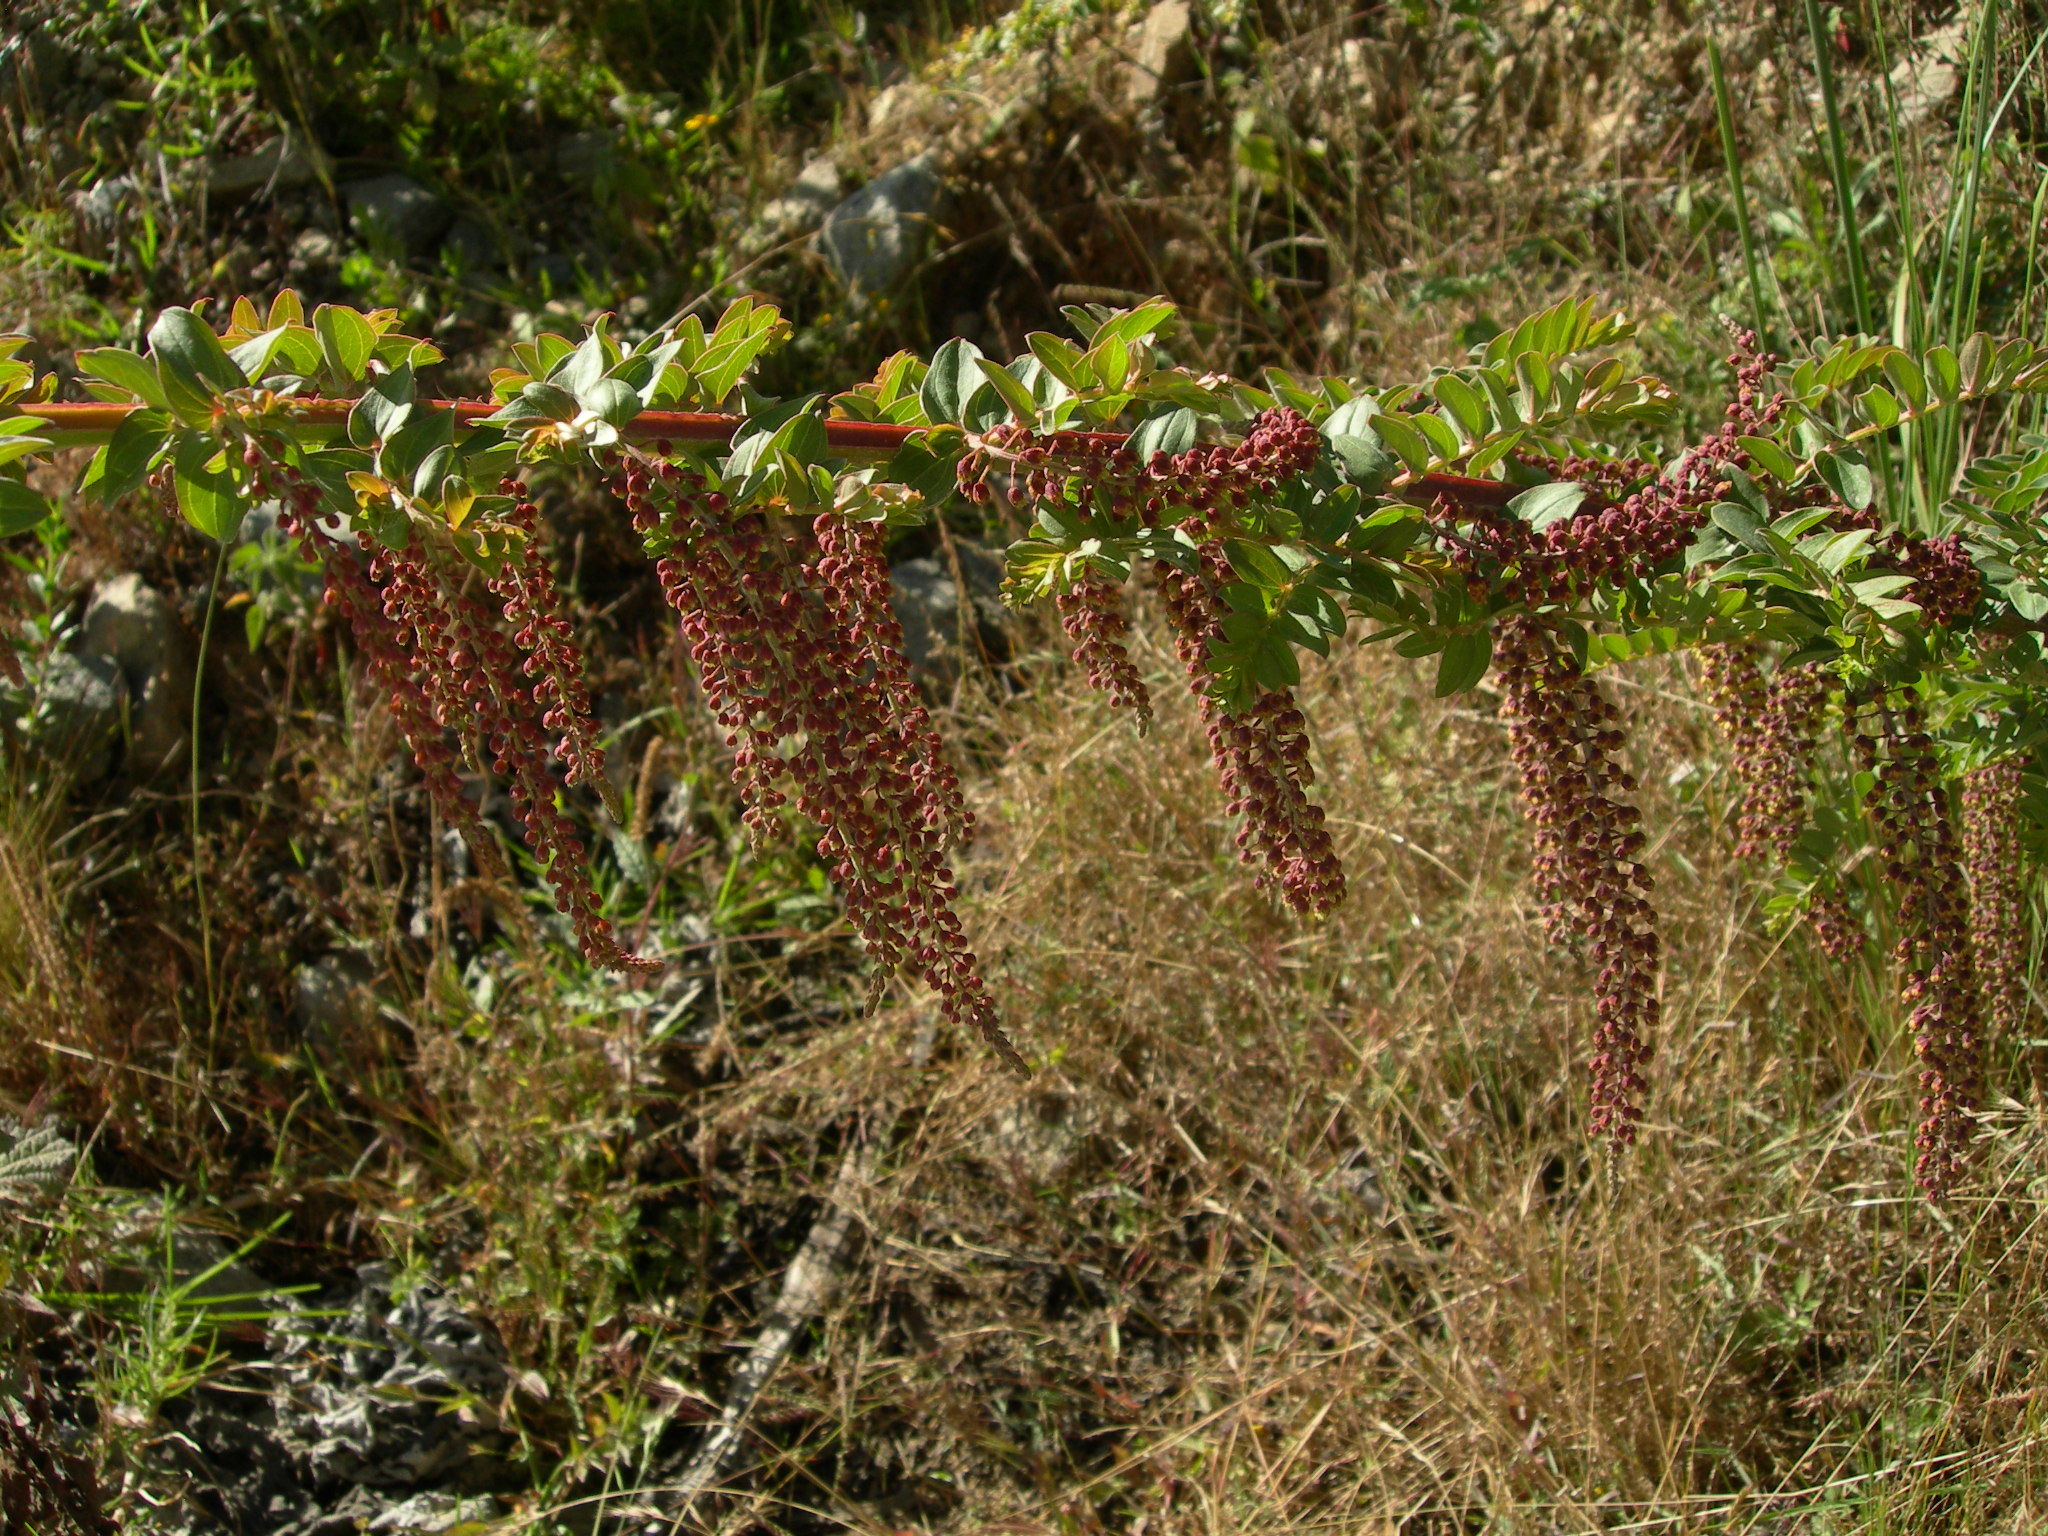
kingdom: Plantae
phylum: Tracheophyta
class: Magnoliopsida
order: Cucurbitales
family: Coriariaceae
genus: Coriaria
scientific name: Coriaria ruscifolia
